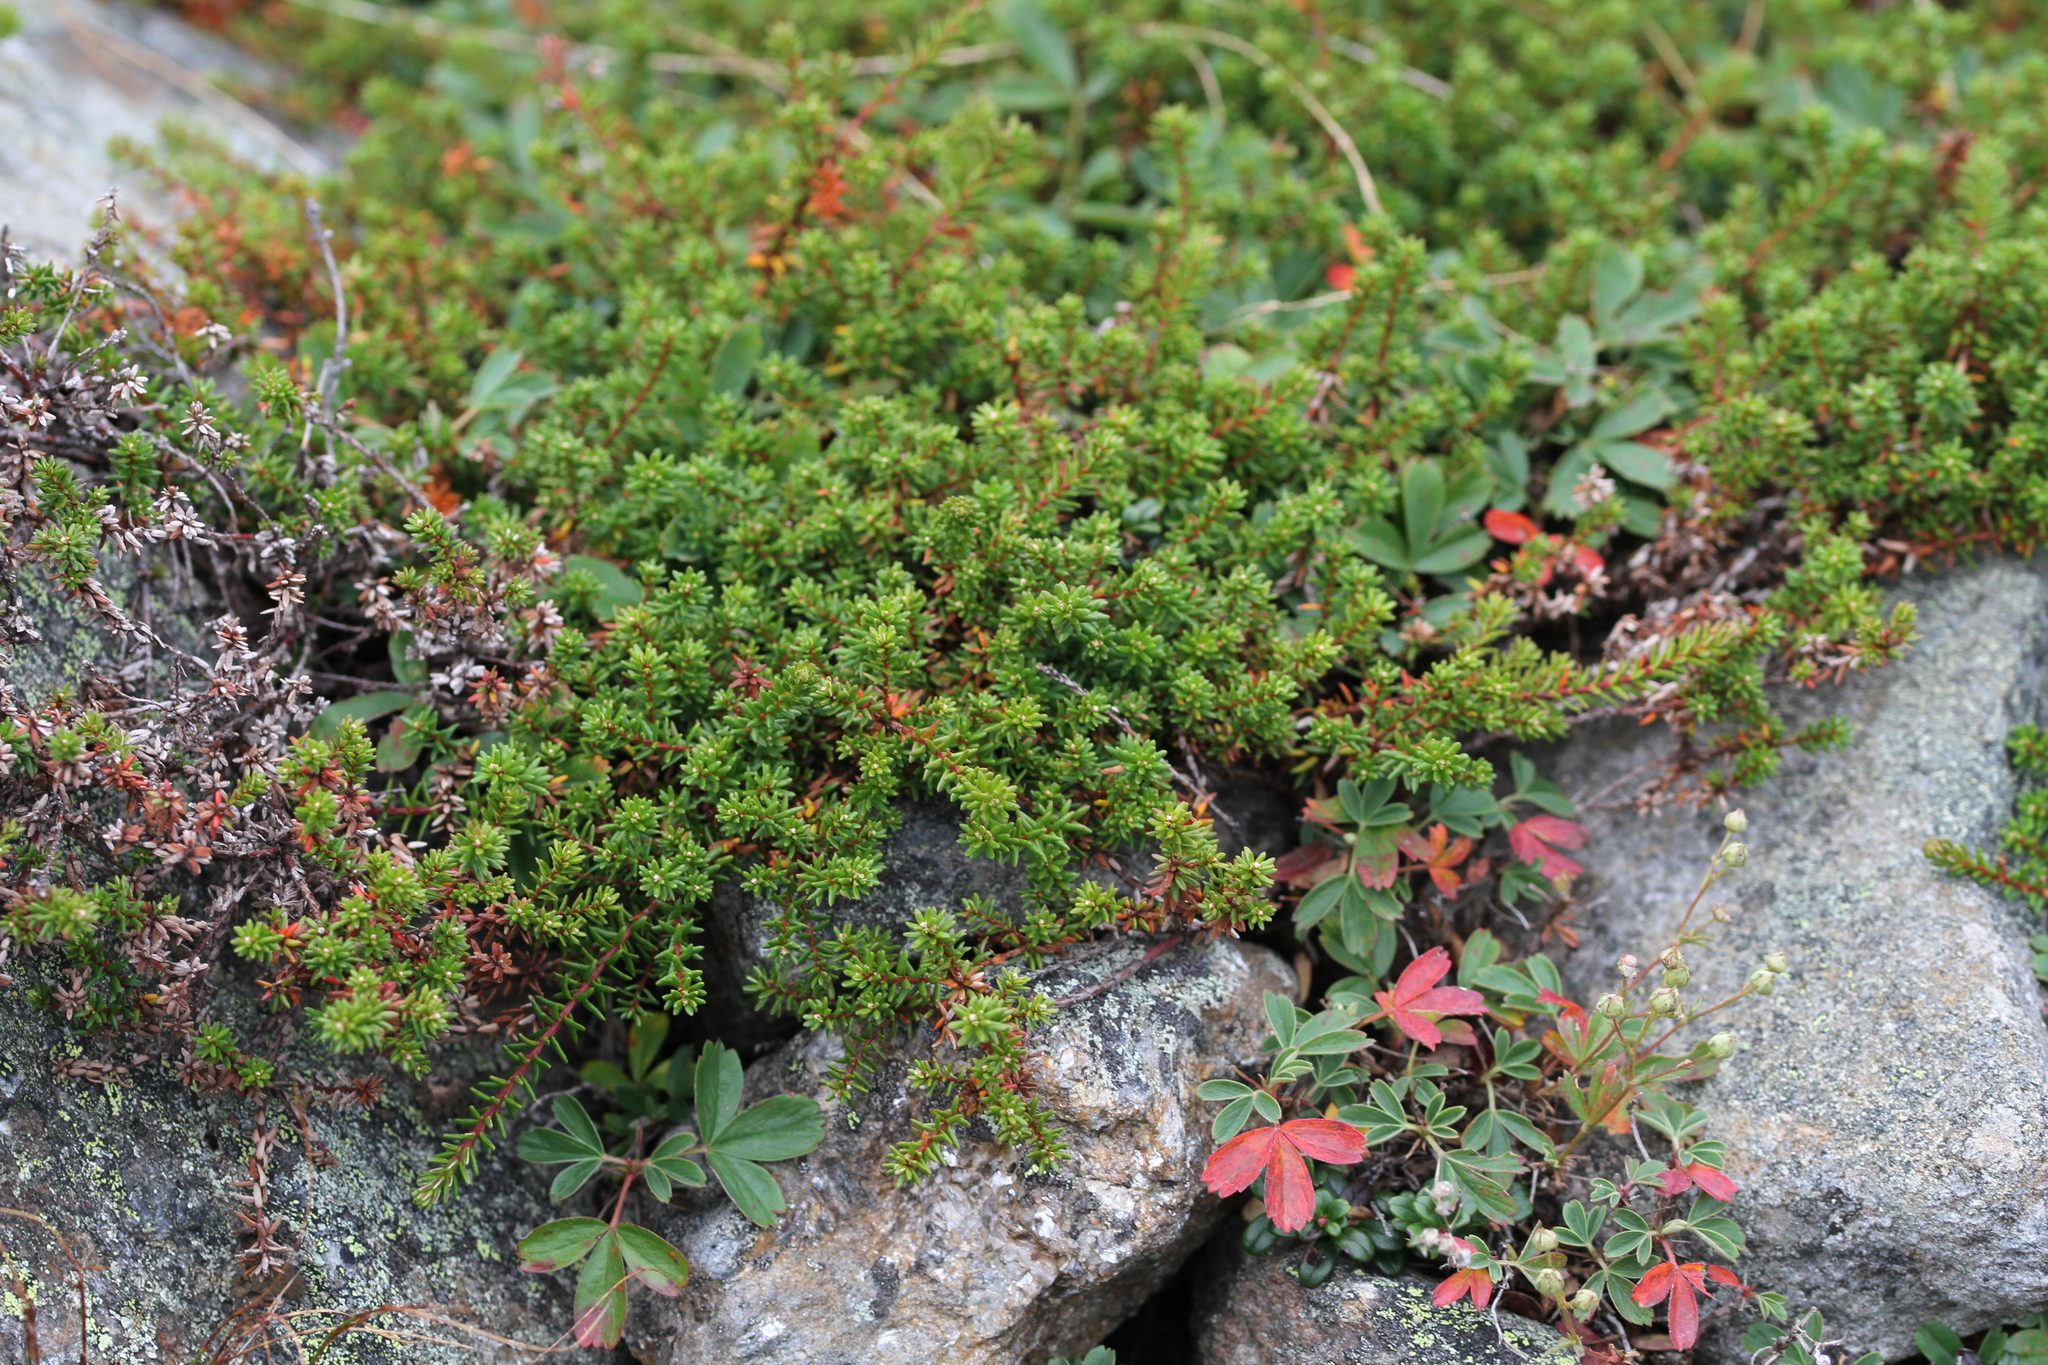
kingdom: Plantae
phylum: Tracheophyta
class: Magnoliopsida
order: Ericales
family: Ericaceae
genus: Empetrum
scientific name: Empetrum nigrum
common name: Black crowberry
